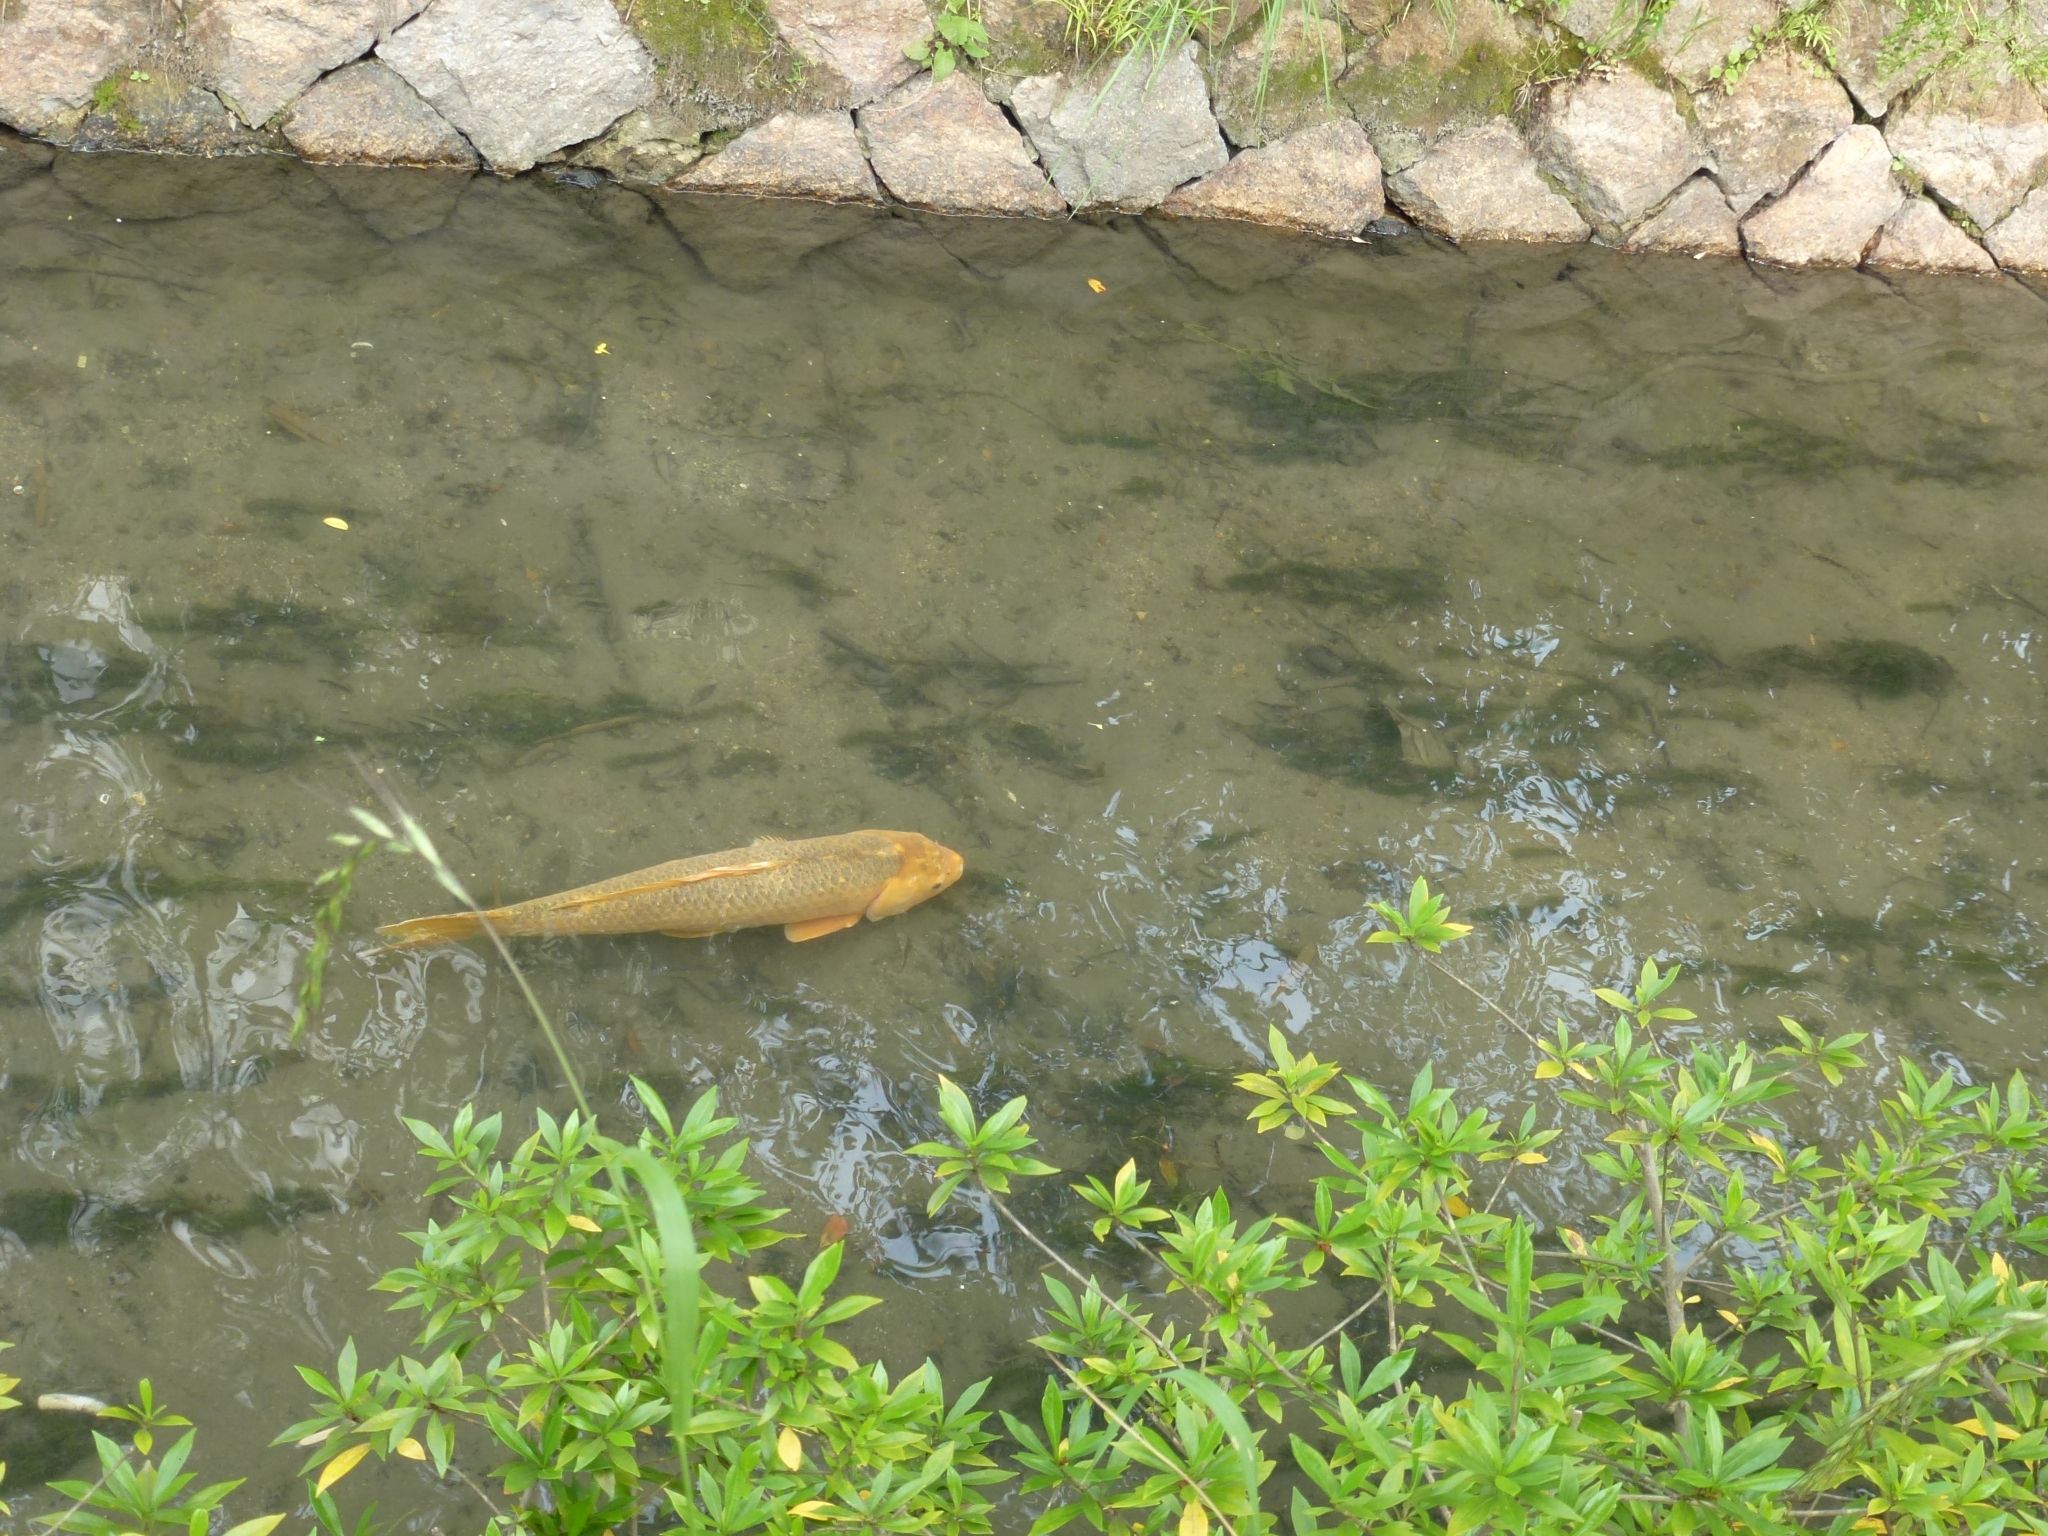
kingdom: Animalia
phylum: Chordata
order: Cypriniformes
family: Cyprinidae
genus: Cyprinus
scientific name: Cyprinus rubrofuscus
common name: Koi
